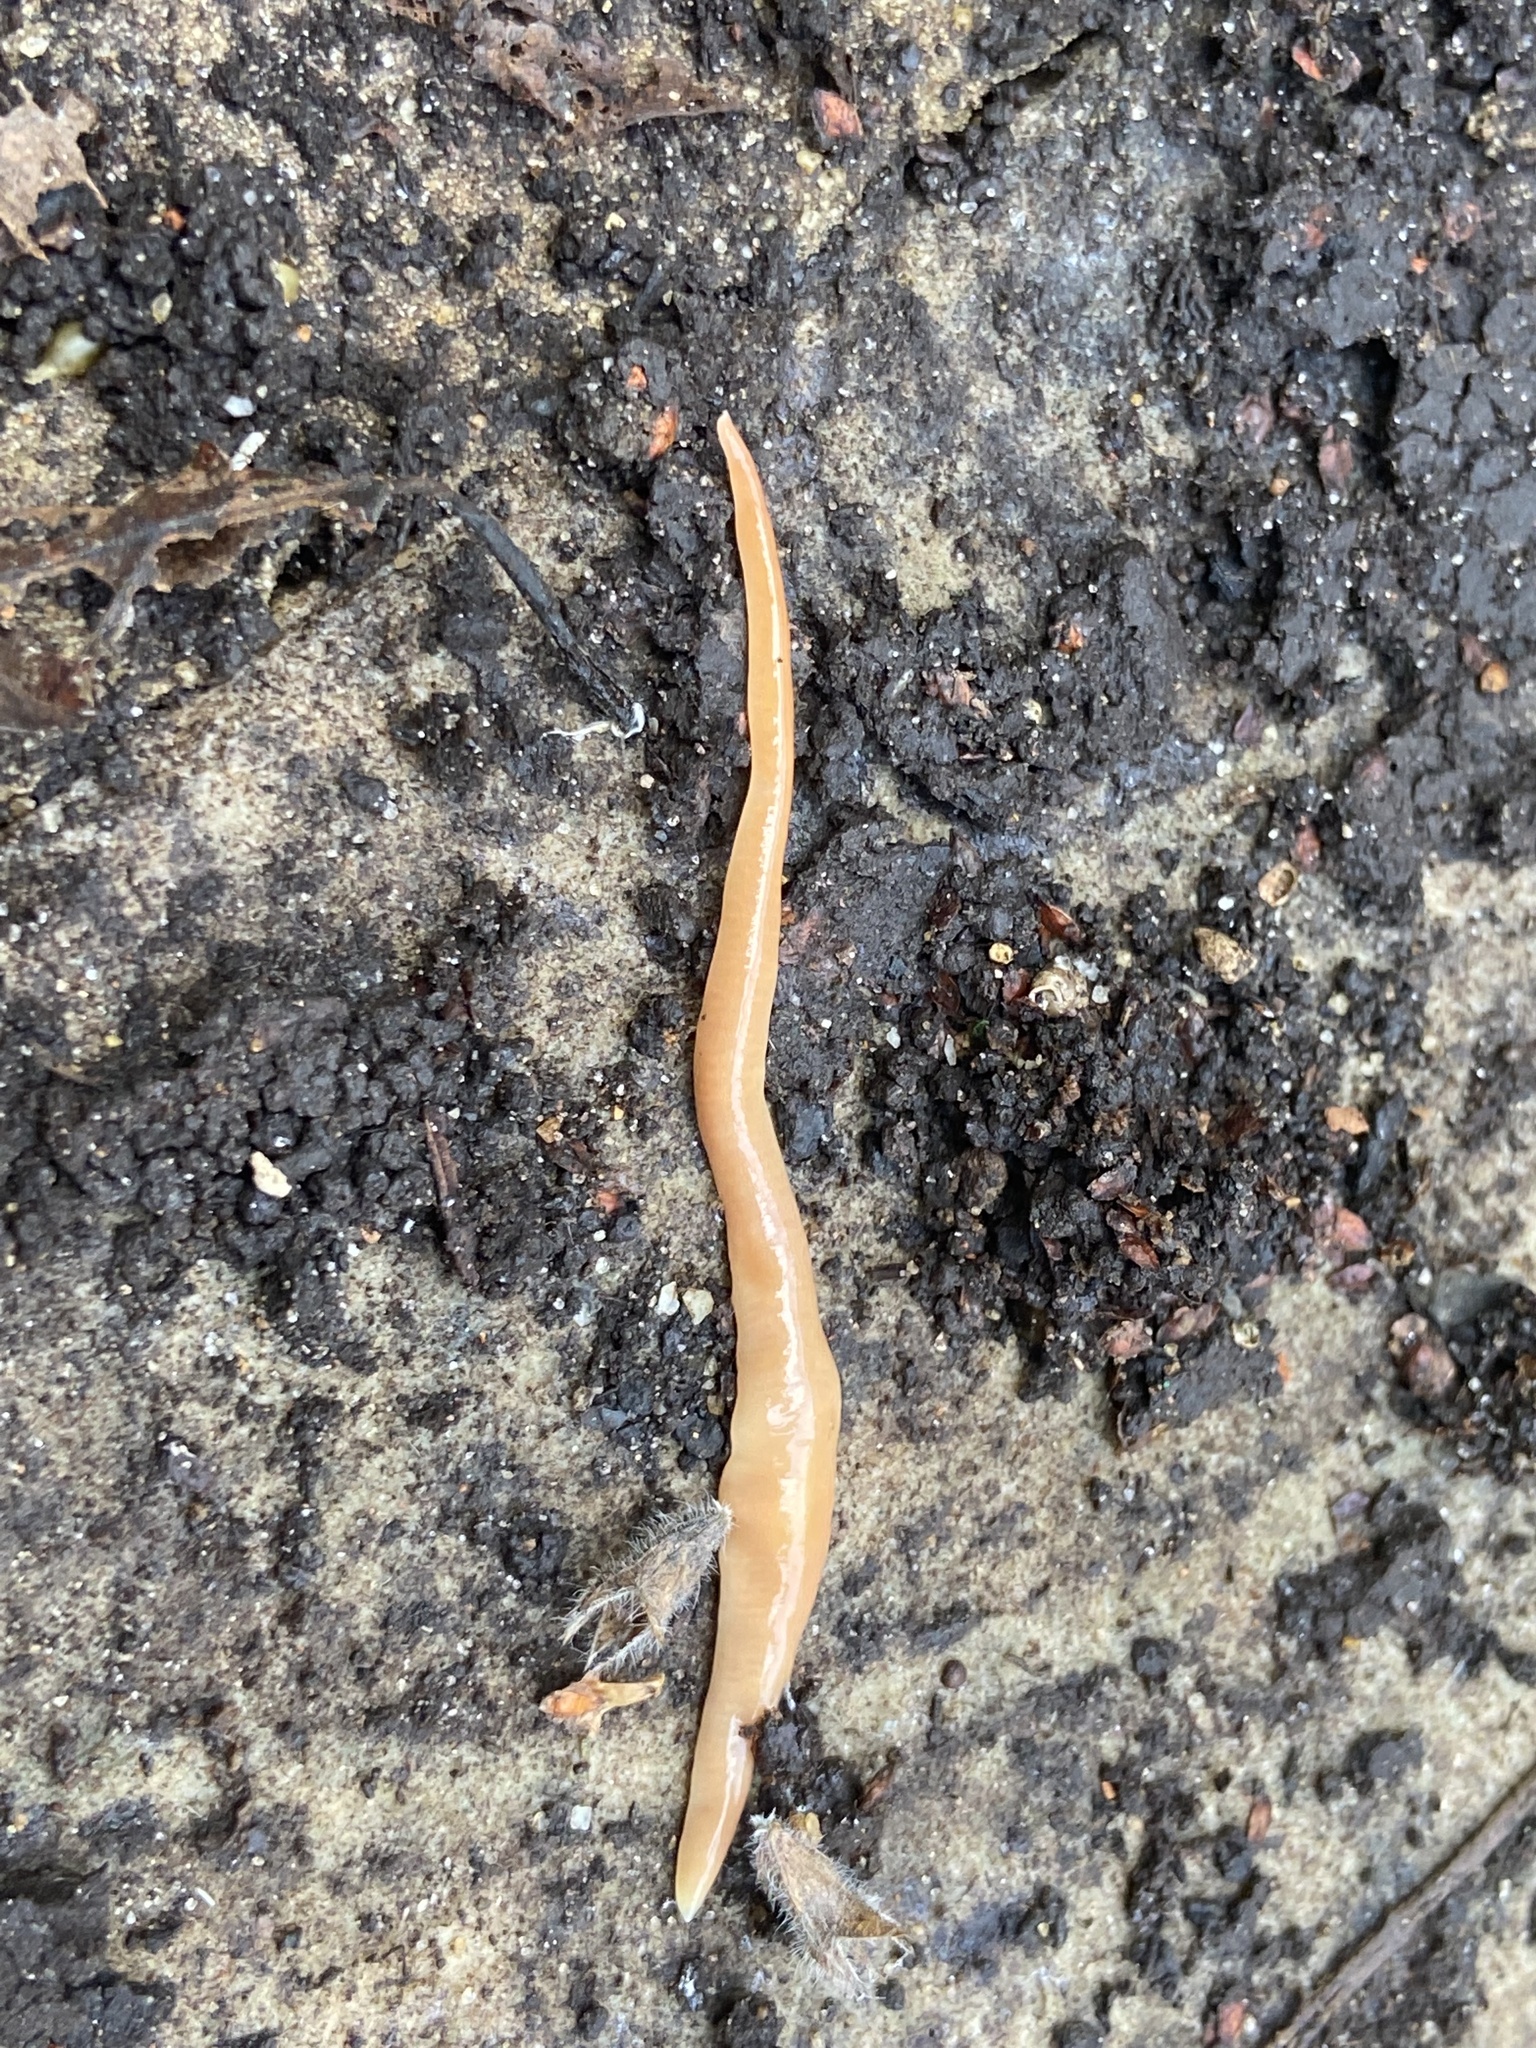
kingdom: Animalia
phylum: Platyhelminthes
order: Tricladida
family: Geoplanidae
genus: Australoplana
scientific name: Australoplana sanguinea
